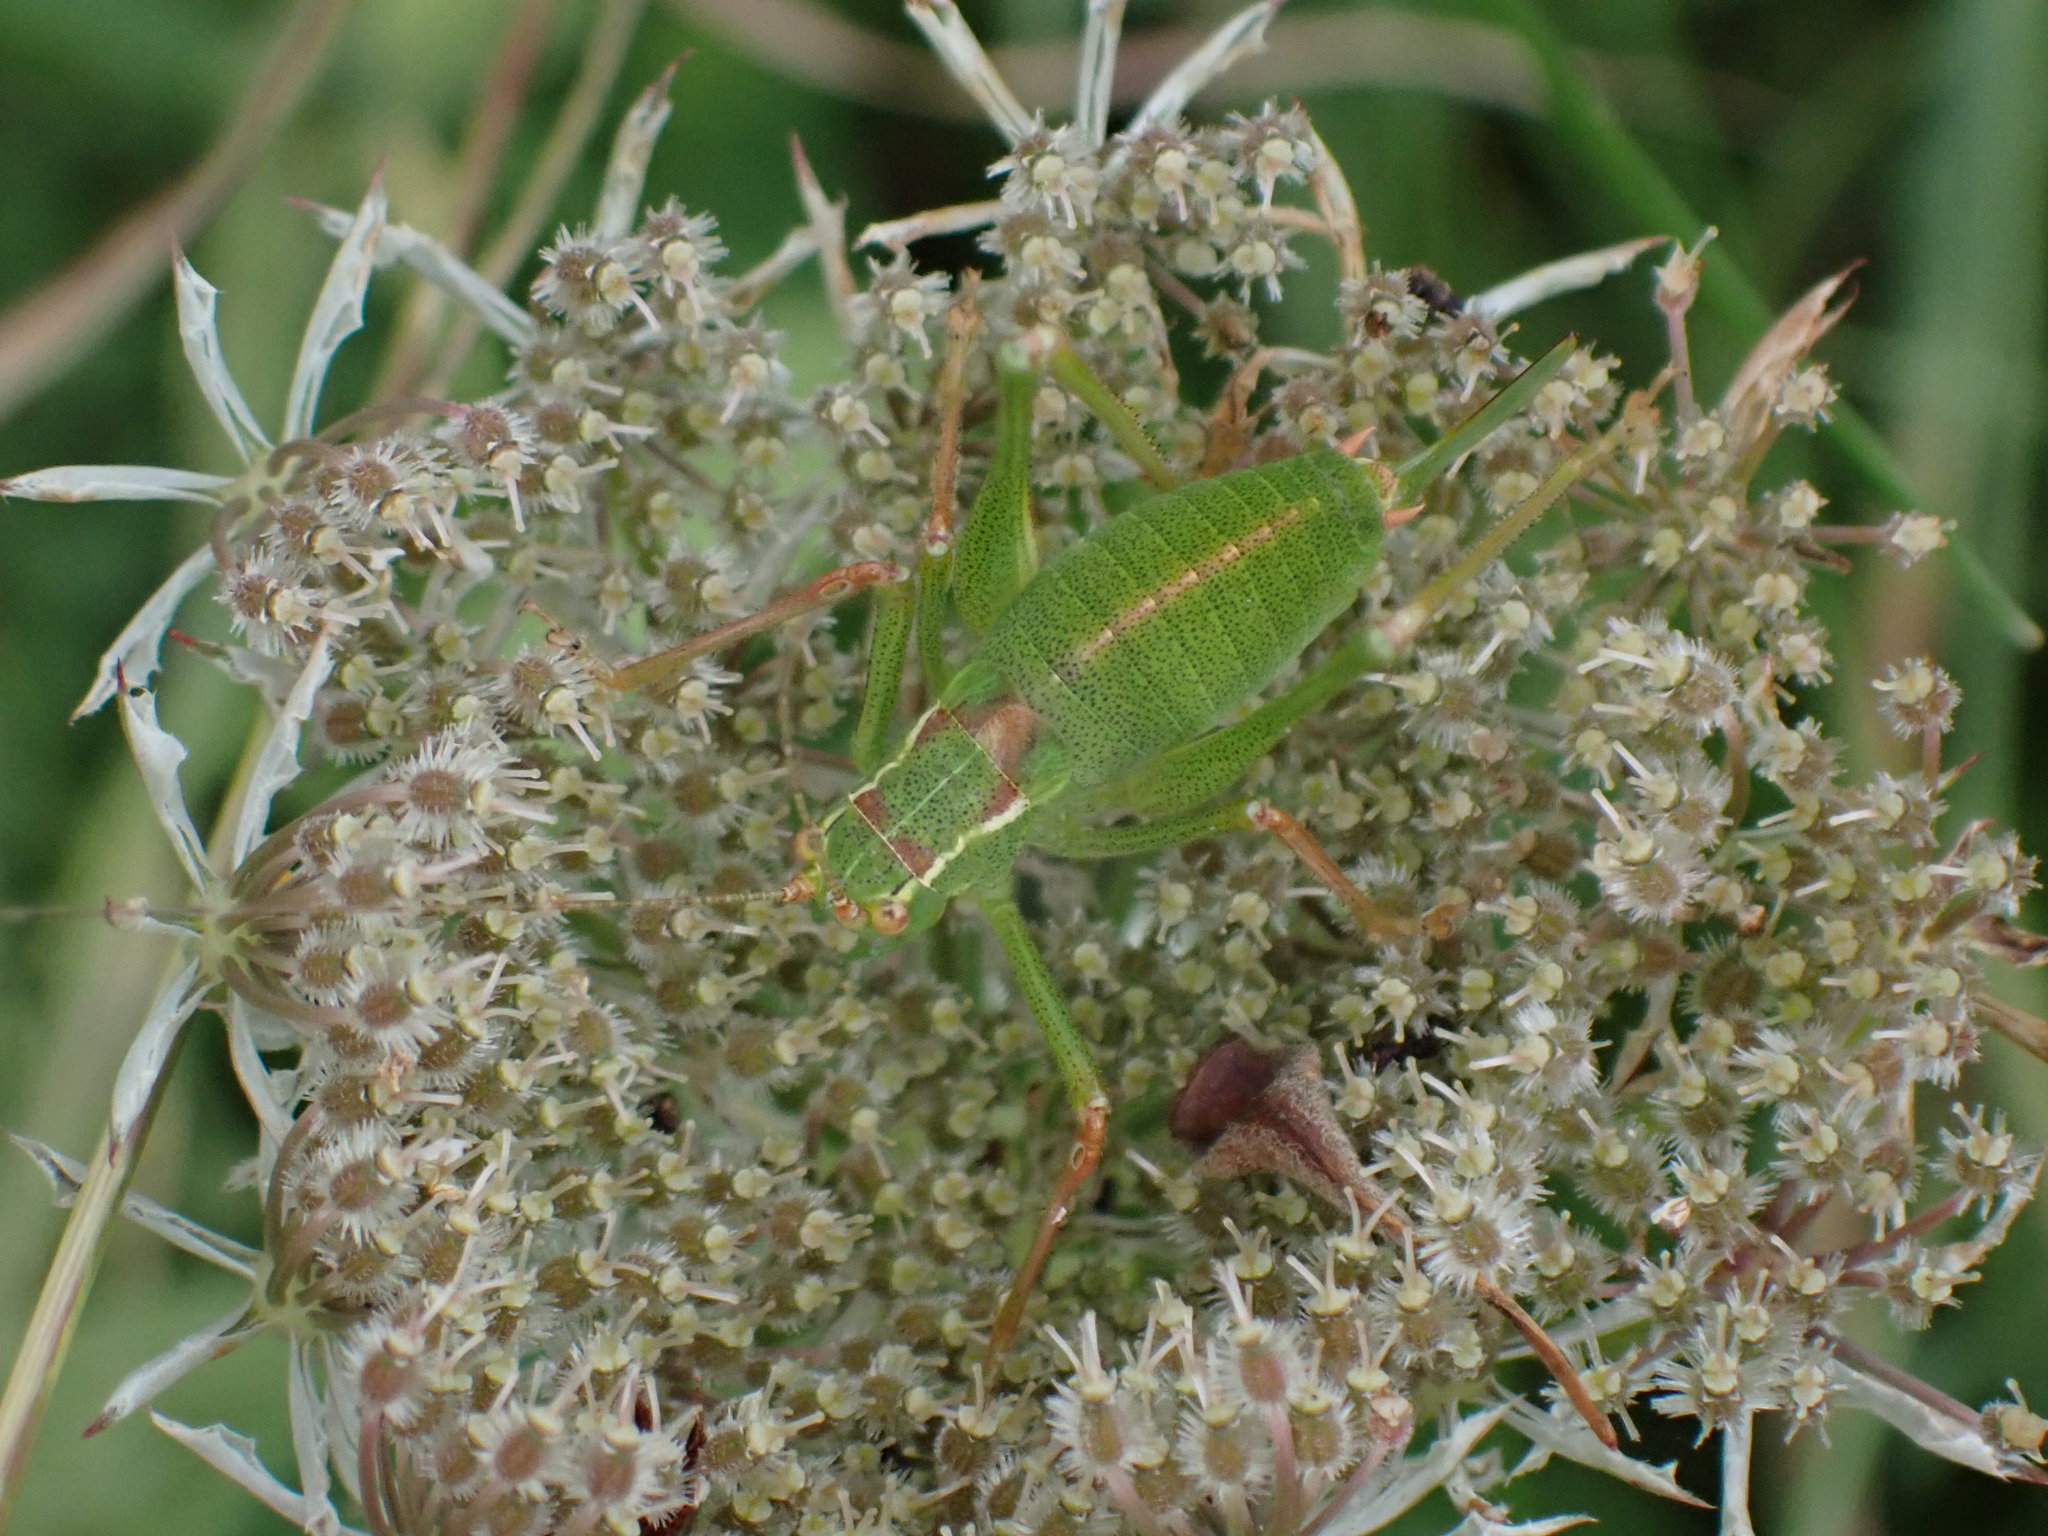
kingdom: Animalia
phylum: Arthropoda
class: Insecta
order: Orthoptera
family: Tettigoniidae
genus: Leptophyes
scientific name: Leptophyes punctatissima
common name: Speckled bush-cricket
